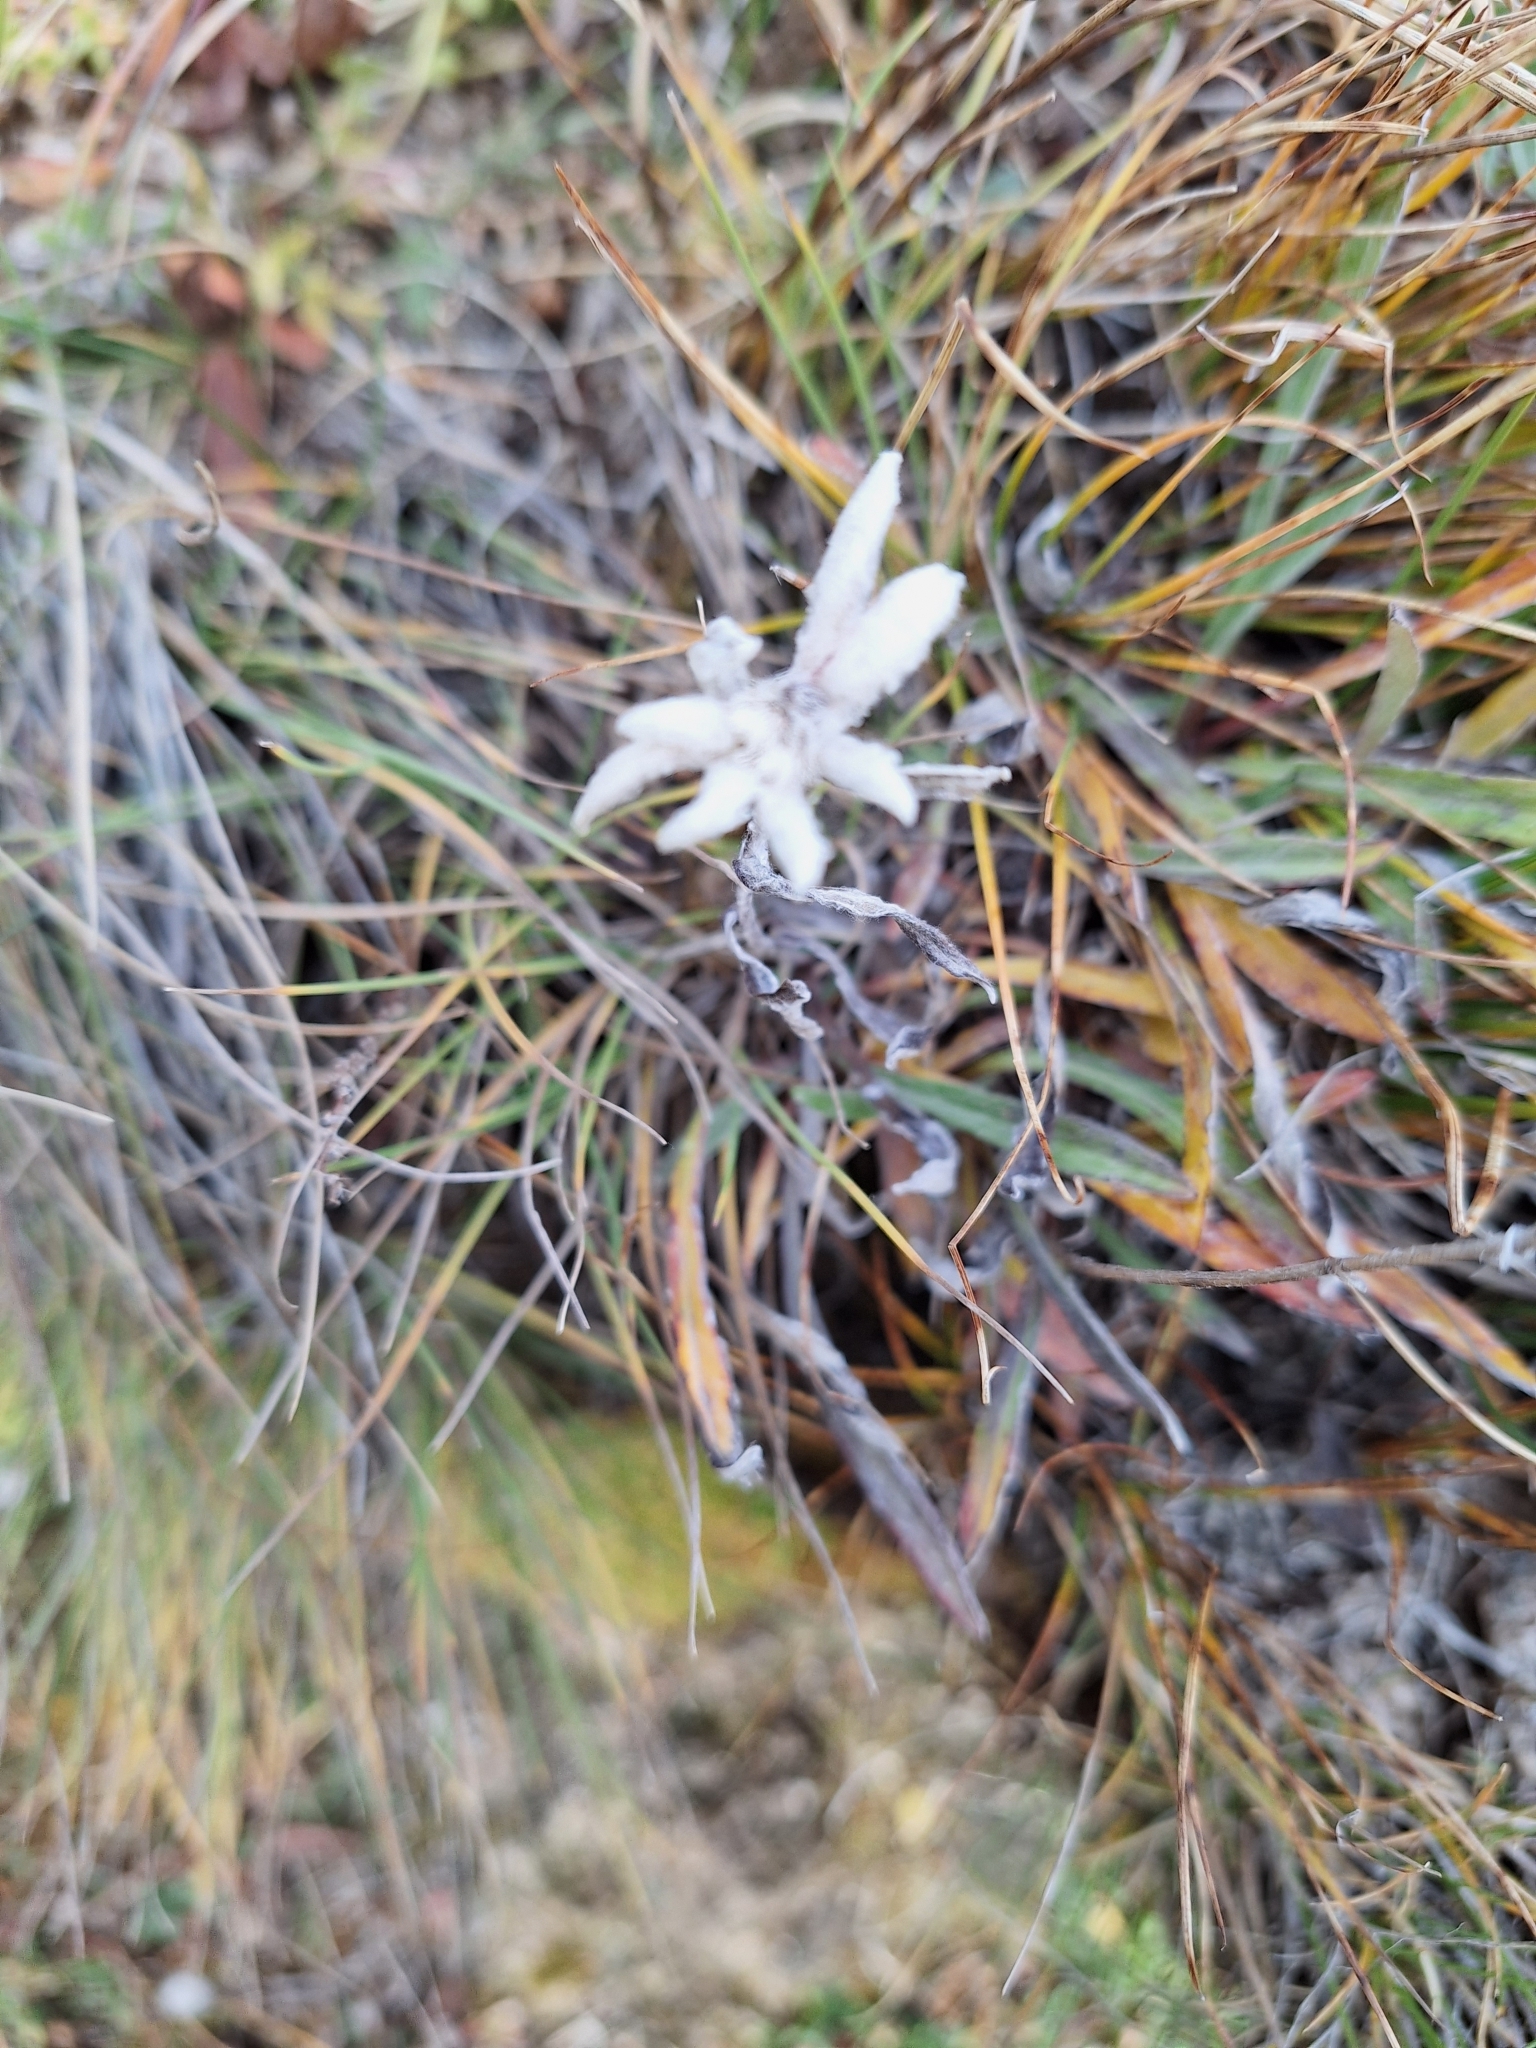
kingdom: Plantae
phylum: Tracheophyta
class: Magnoliopsida
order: Asterales
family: Asteraceae
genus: Leontopodium
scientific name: Leontopodium nivale
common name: Edelweiss
